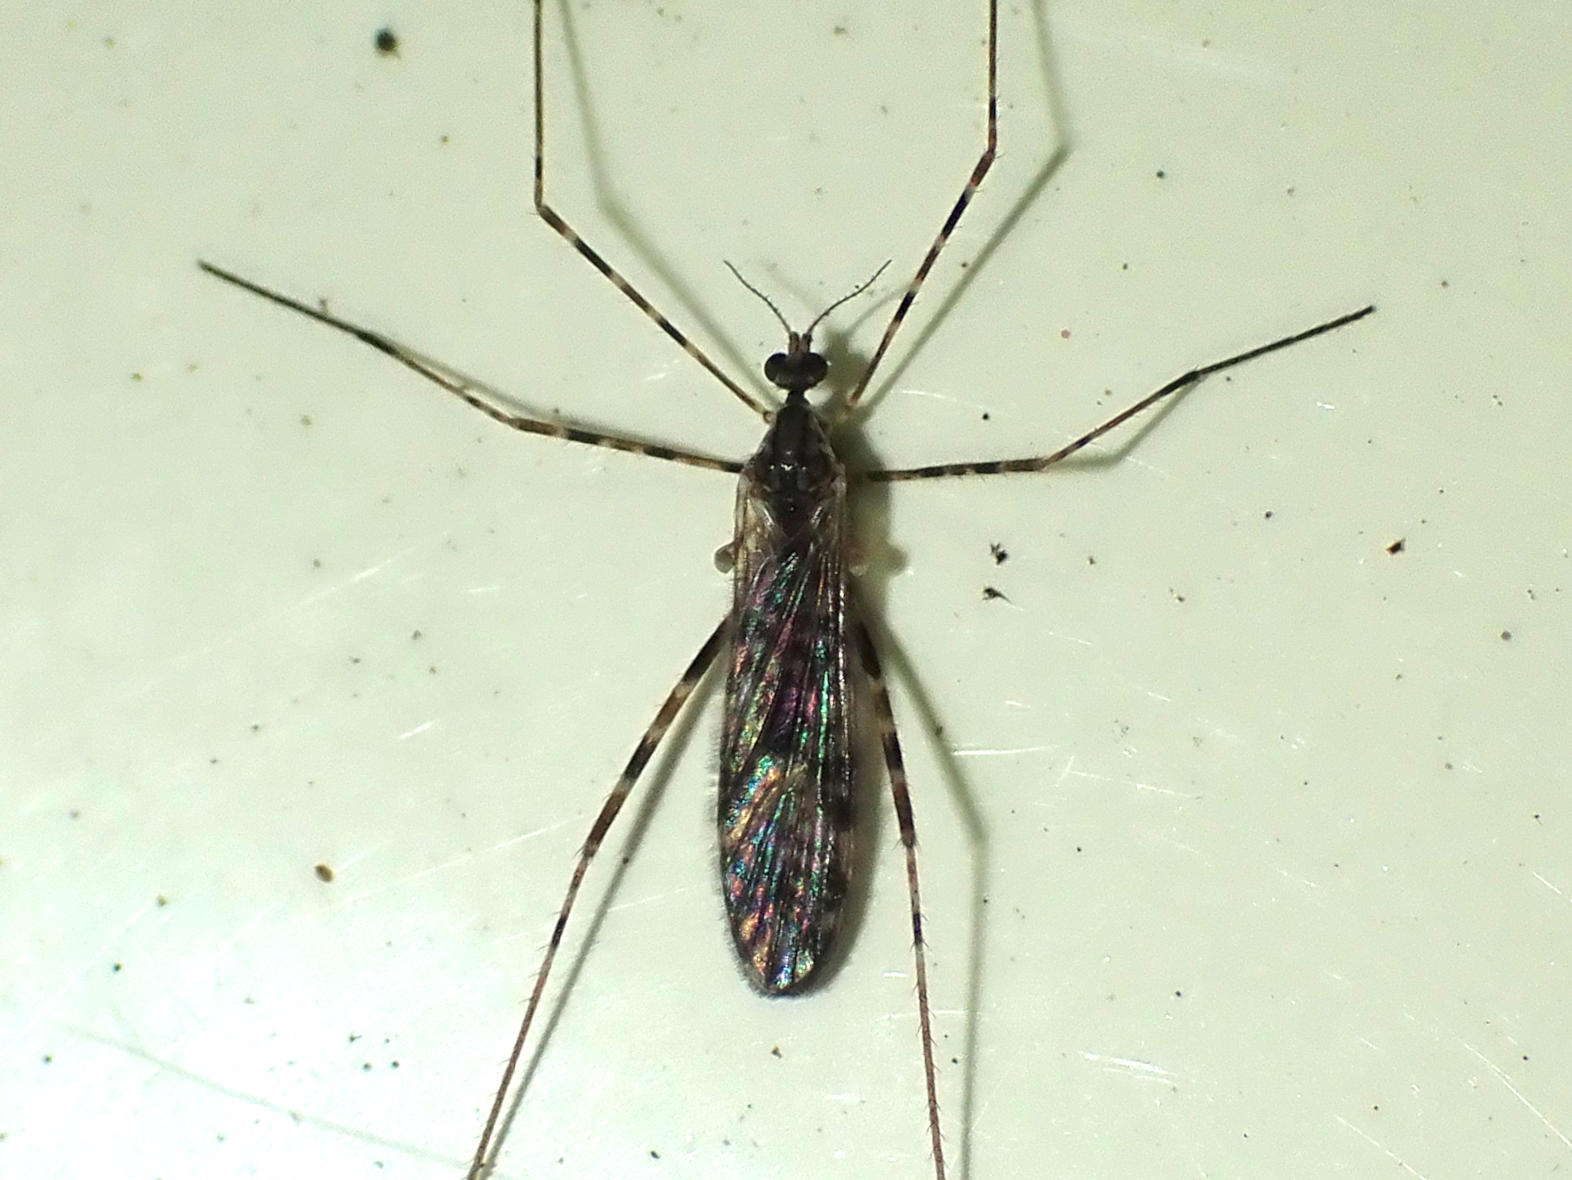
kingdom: Animalia
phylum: Arthropoda
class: Insecta
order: Diptera
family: Limoniidae
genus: Amphineurus
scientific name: Amphineurus hudsoni
